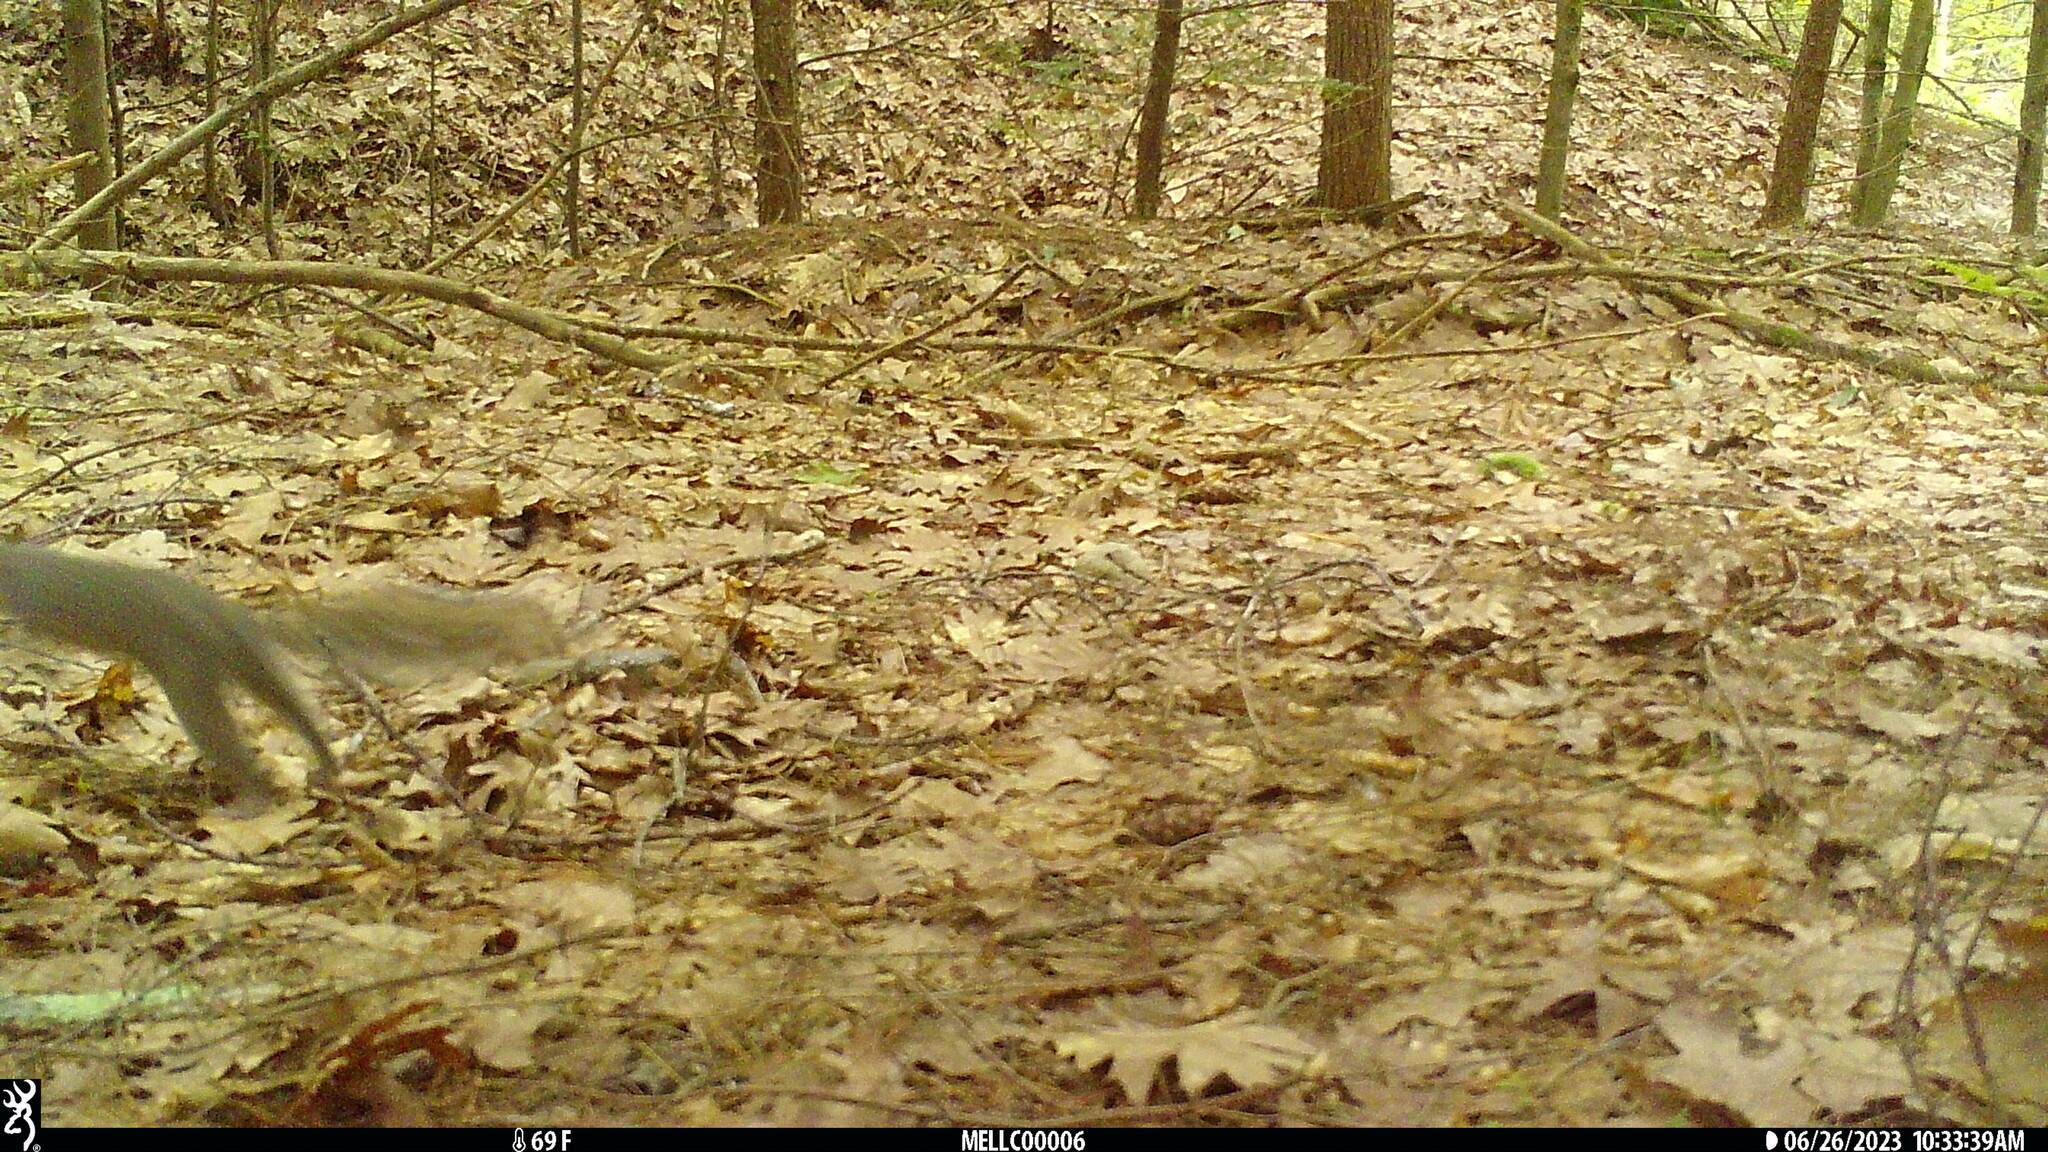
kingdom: Animalia
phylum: Chordata
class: Mammalia
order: Rodentia
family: Sciuridae
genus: Sciurus
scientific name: Sciurus carolinensis
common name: Eastern gray squirrel
